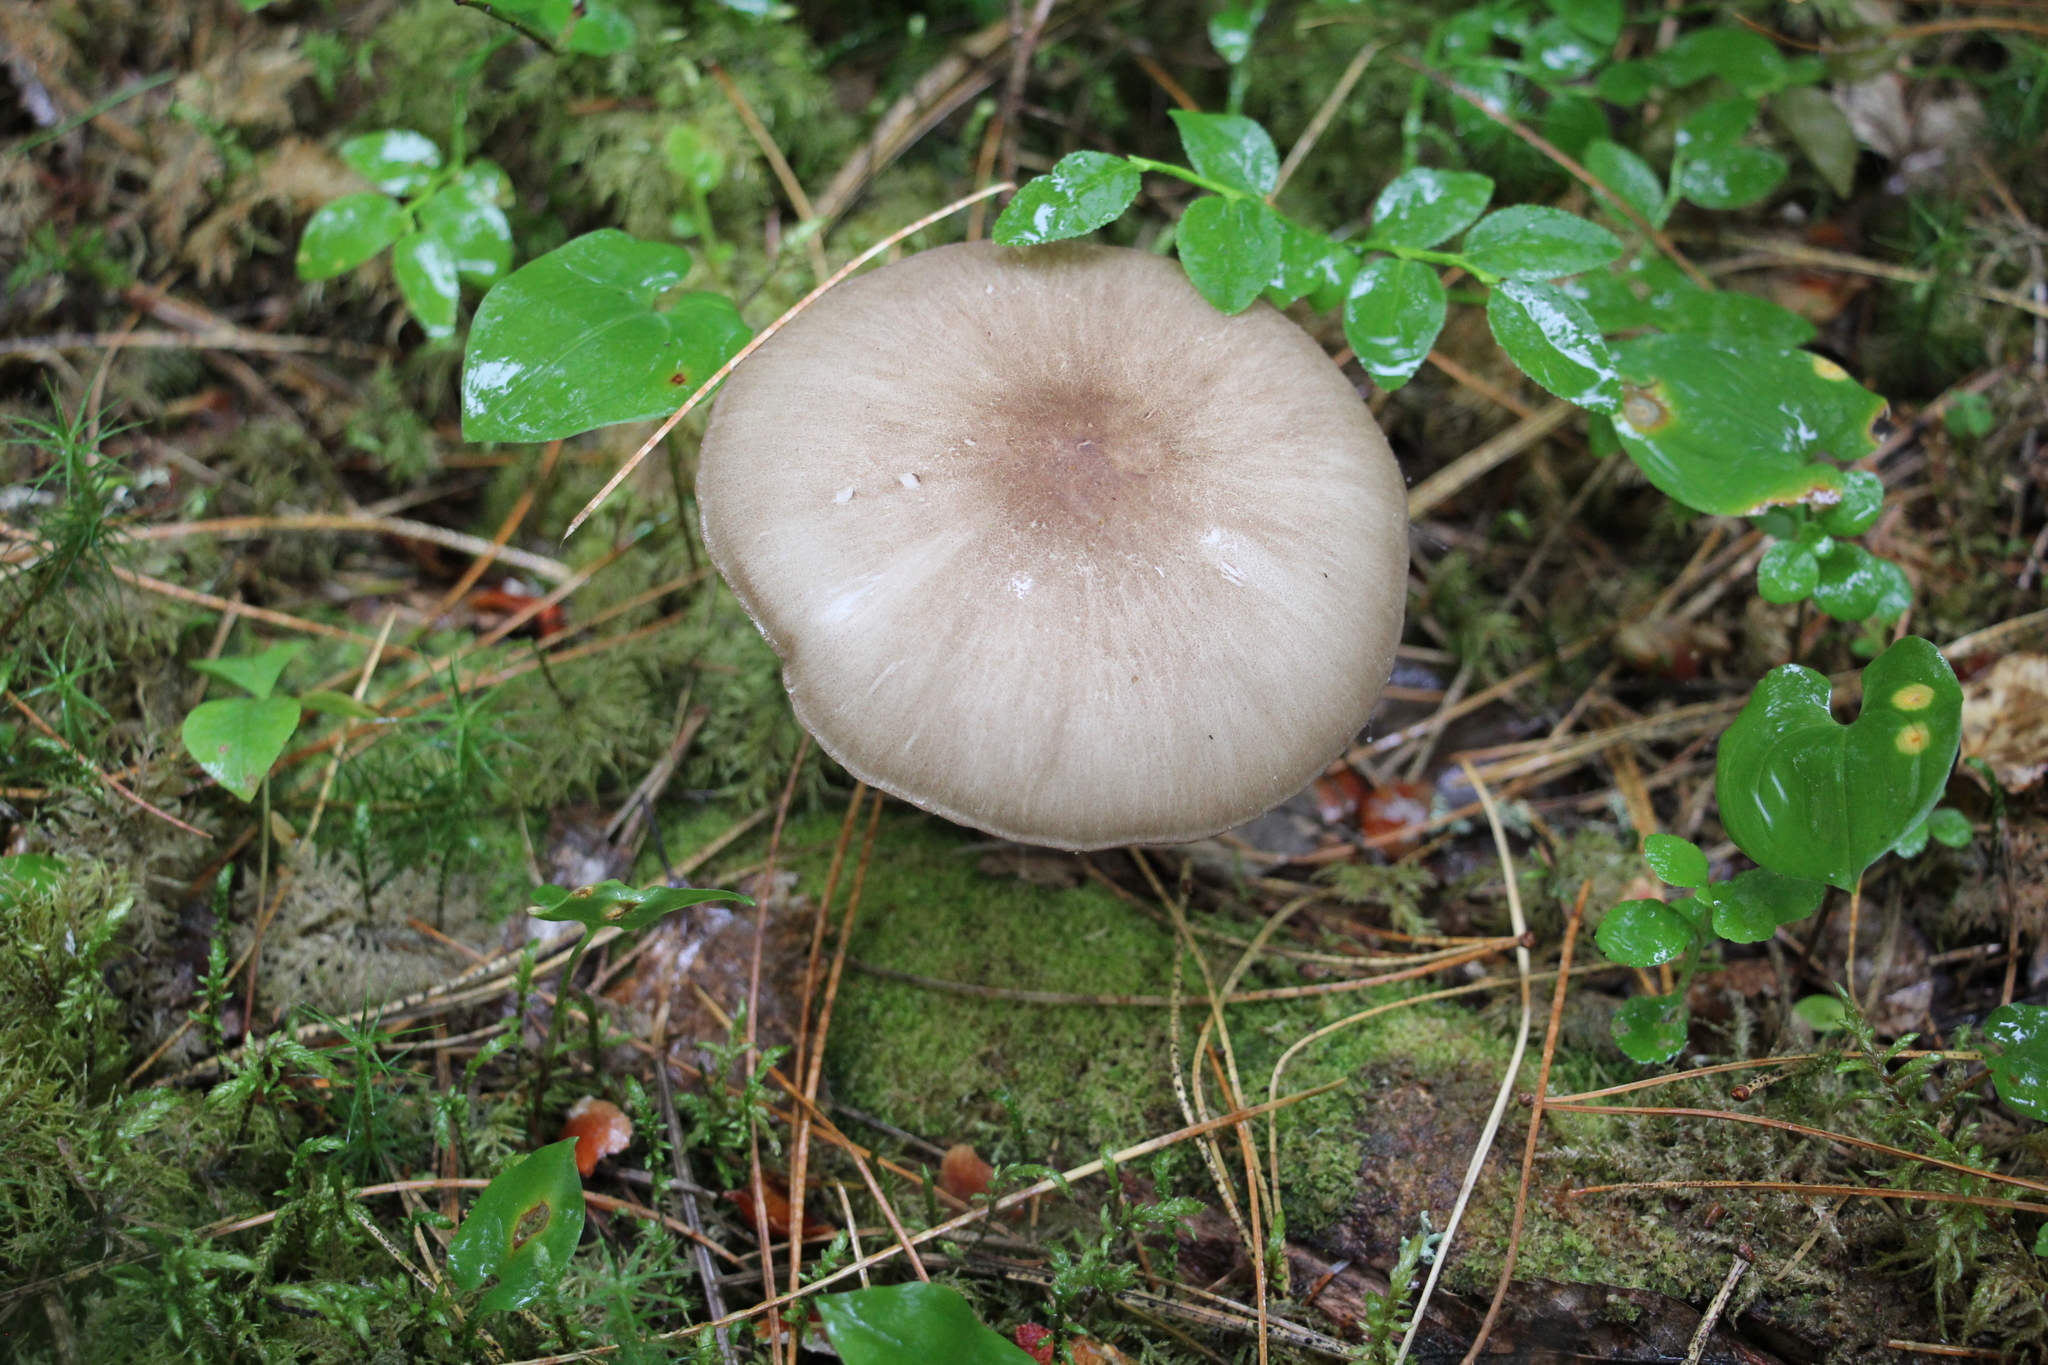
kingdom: Fungi
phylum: Basidiomycota
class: Agaricomycetes
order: Agaricales
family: Tricholomataceae
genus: Megacollybia
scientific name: Megacollybia platyphylla
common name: Whitelaced shank
